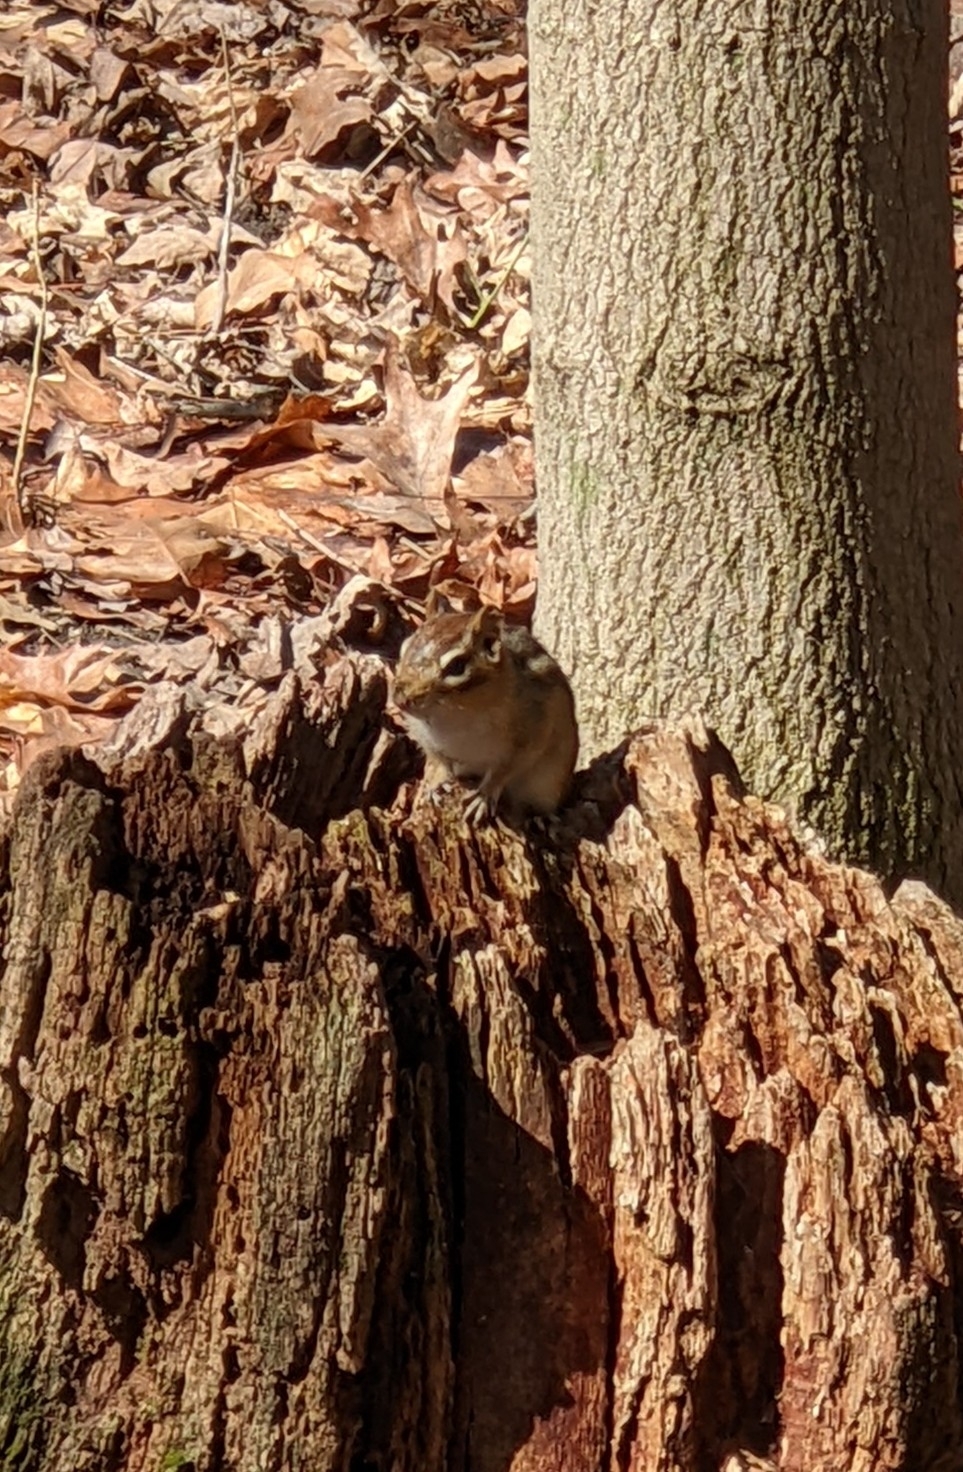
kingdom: Animalia
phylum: Chordata
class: Mammalia
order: Rodentia
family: Sciuridae
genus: Tamias
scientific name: Tamias striatus
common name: Eastern chipmunk
